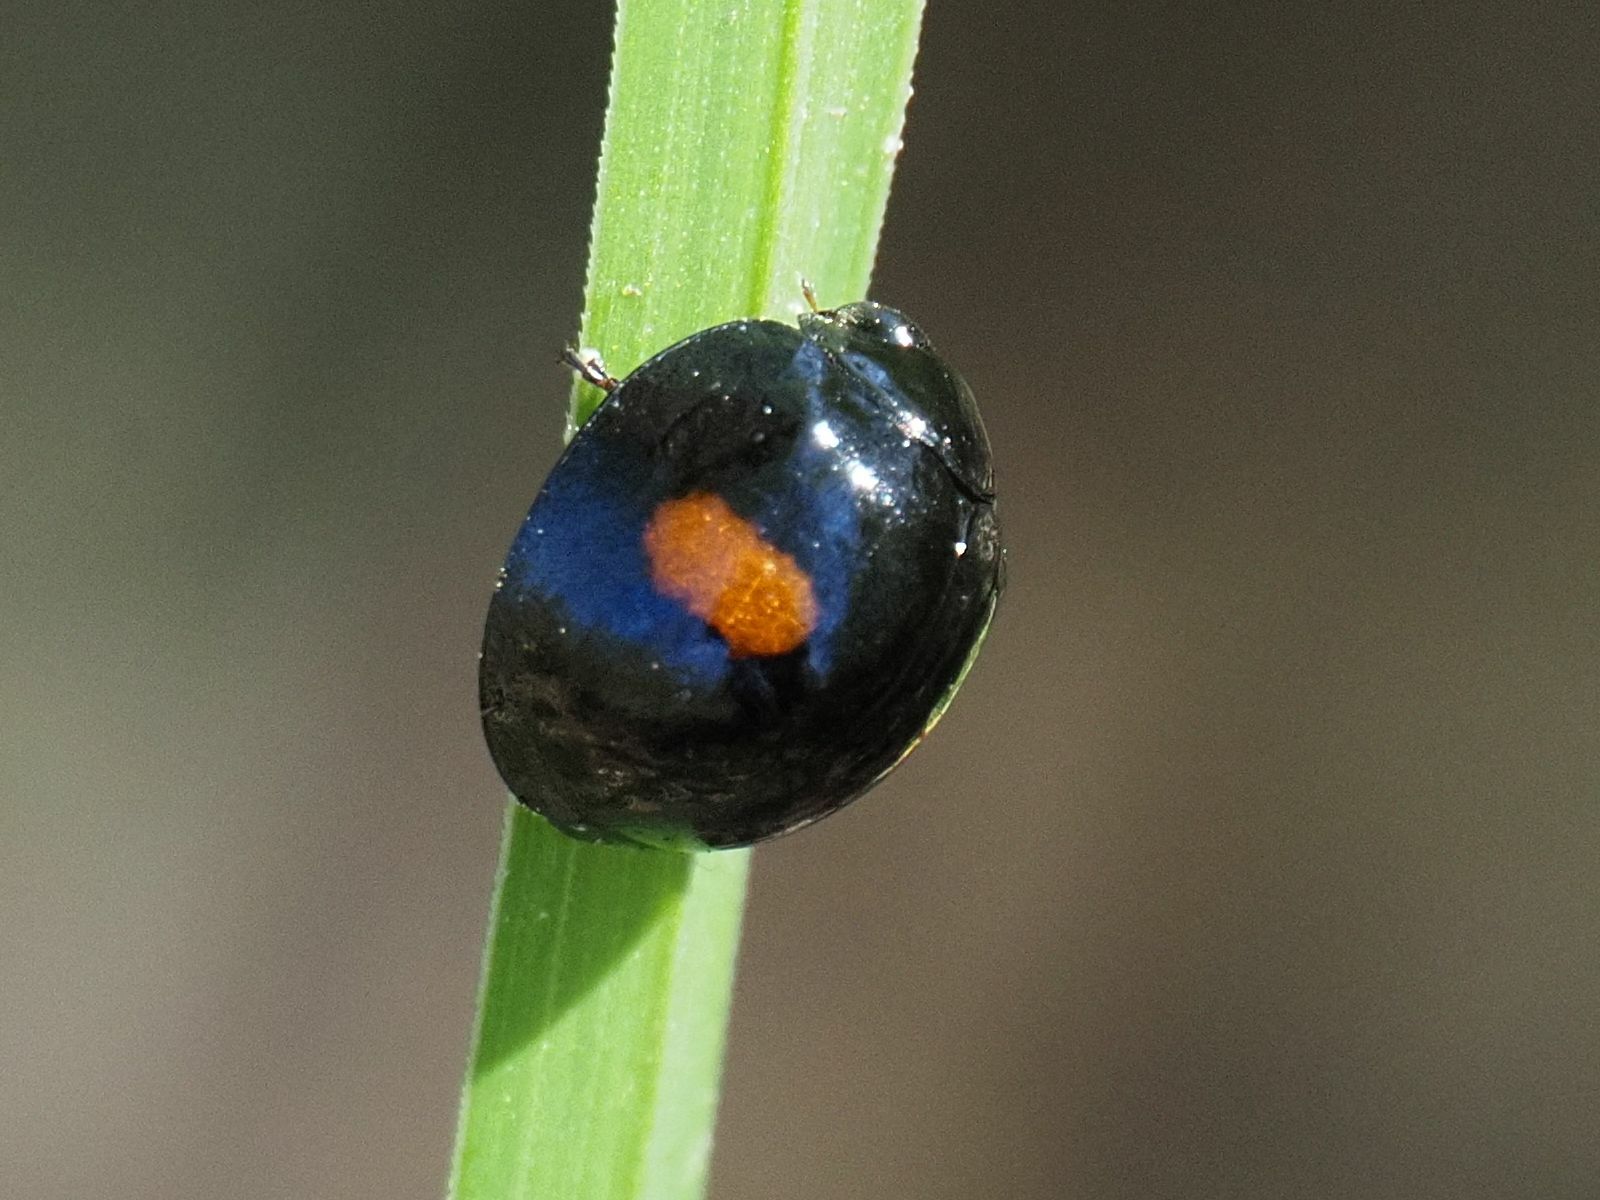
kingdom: Animalia
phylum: Arthropoda
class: Insecta
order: Coleoptera
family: Coccinellidae
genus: Chilocorus
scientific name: Chilocorus renipustulatus
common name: Kidney-spot ladybird
